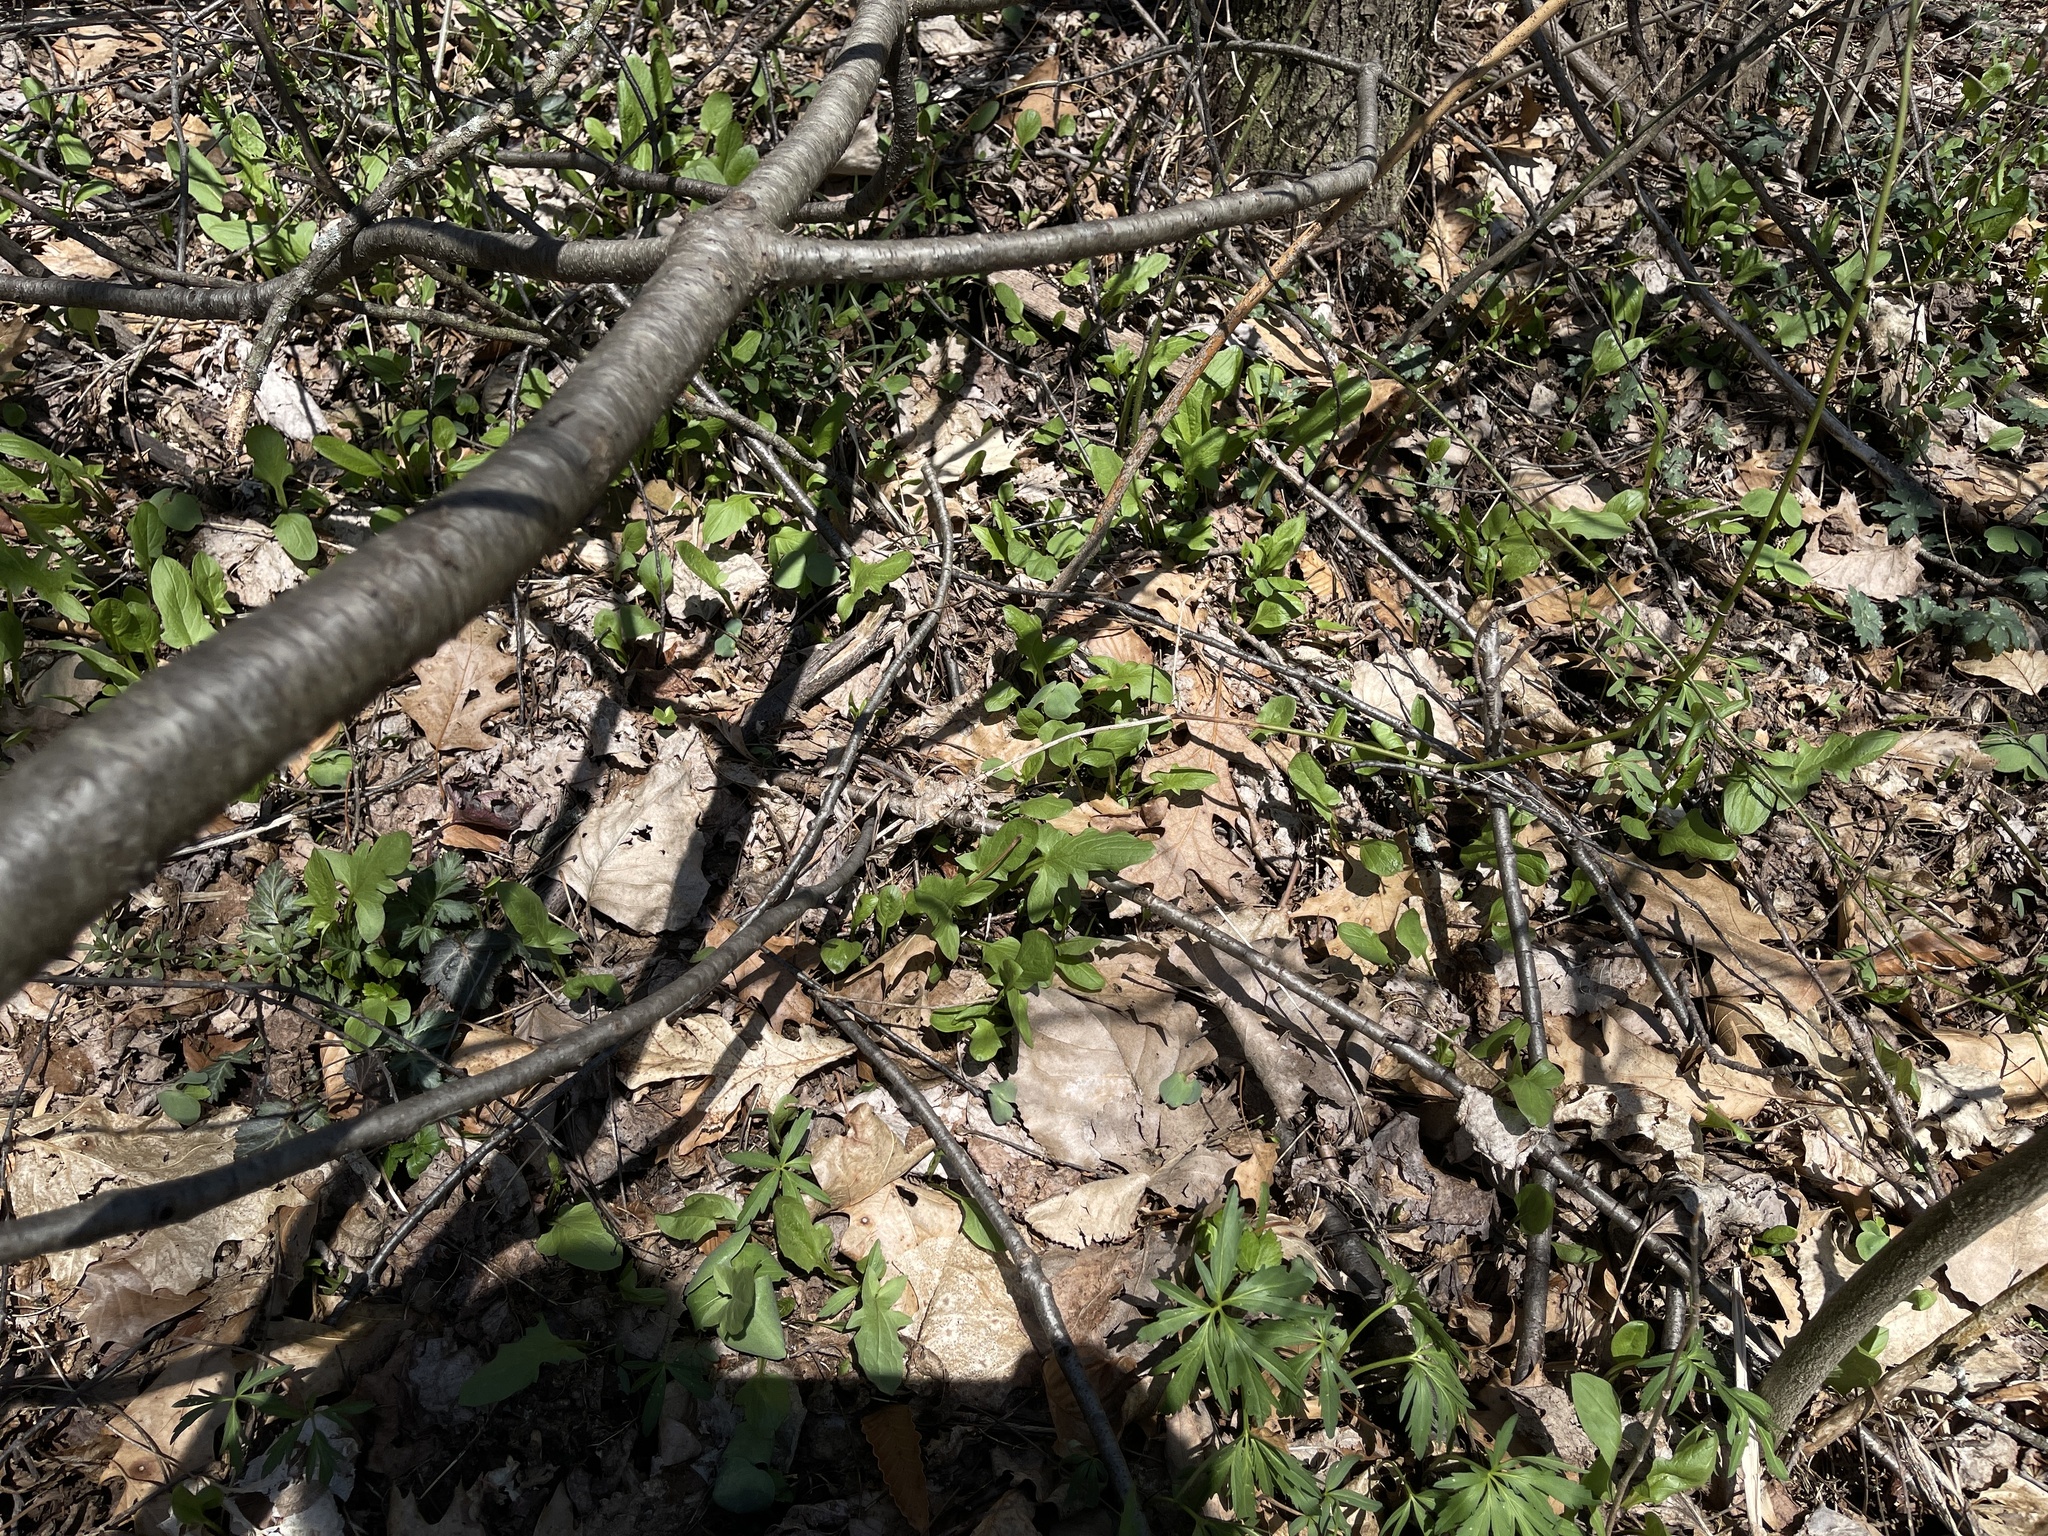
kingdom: Plantae
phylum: Tracheophyta
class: Magnoliopsida
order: Asterales
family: Asteraceae
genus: Nabalus
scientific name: Nabalus crepidineus
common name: Nodding rattlesnakeroot
